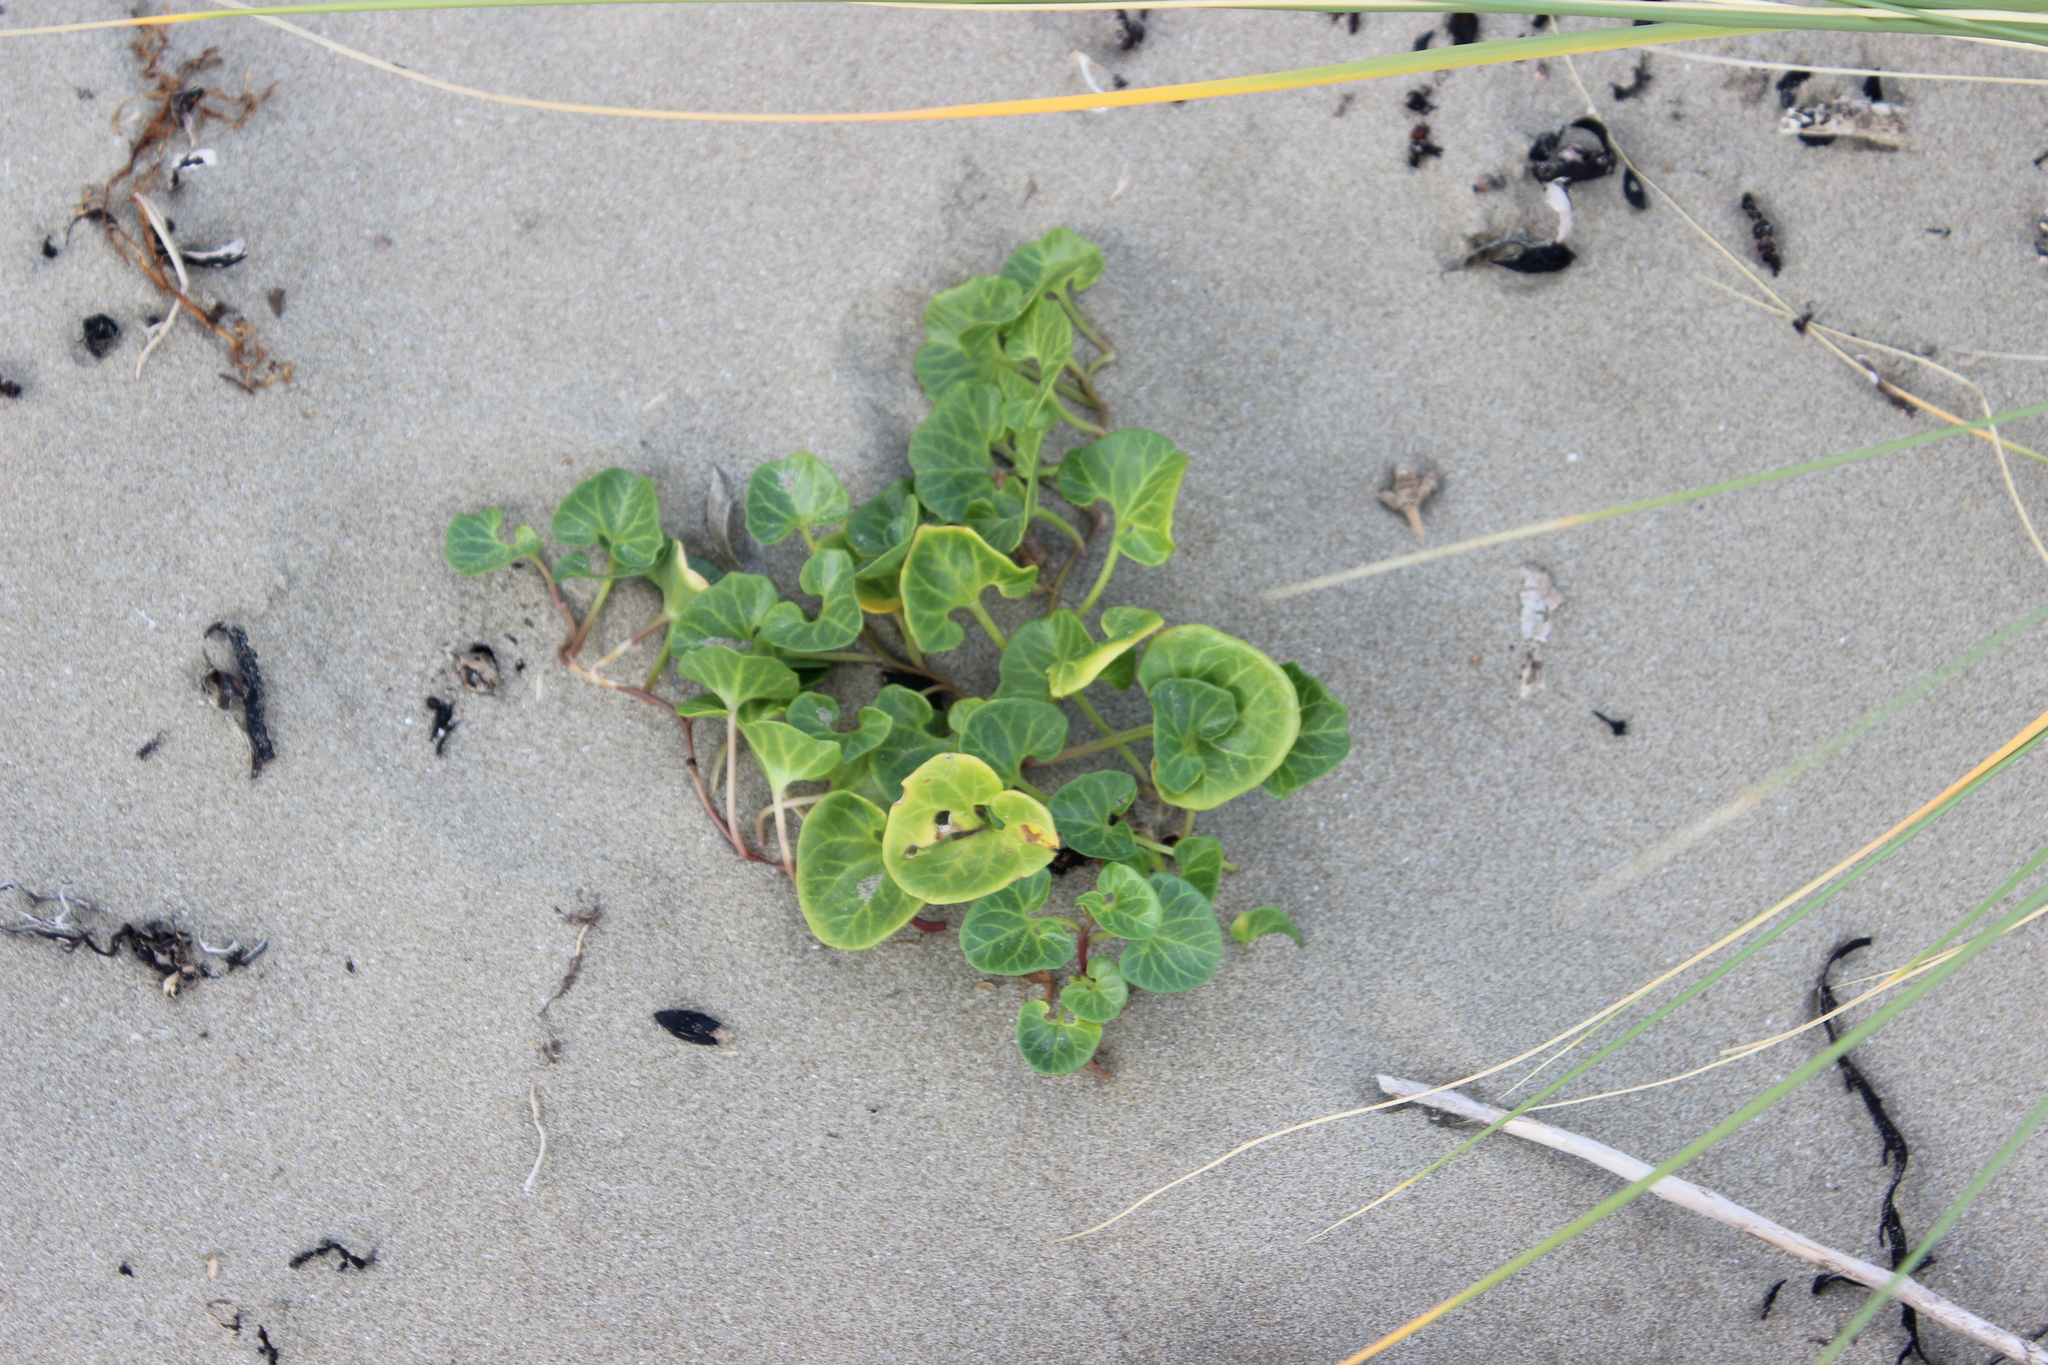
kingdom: Plantae
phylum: Tracheophyta
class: Magnoliopsida
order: Solanales
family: Convolvulaceae
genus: Calystegia
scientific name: Calystegia soldanella
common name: Sea bindweed
